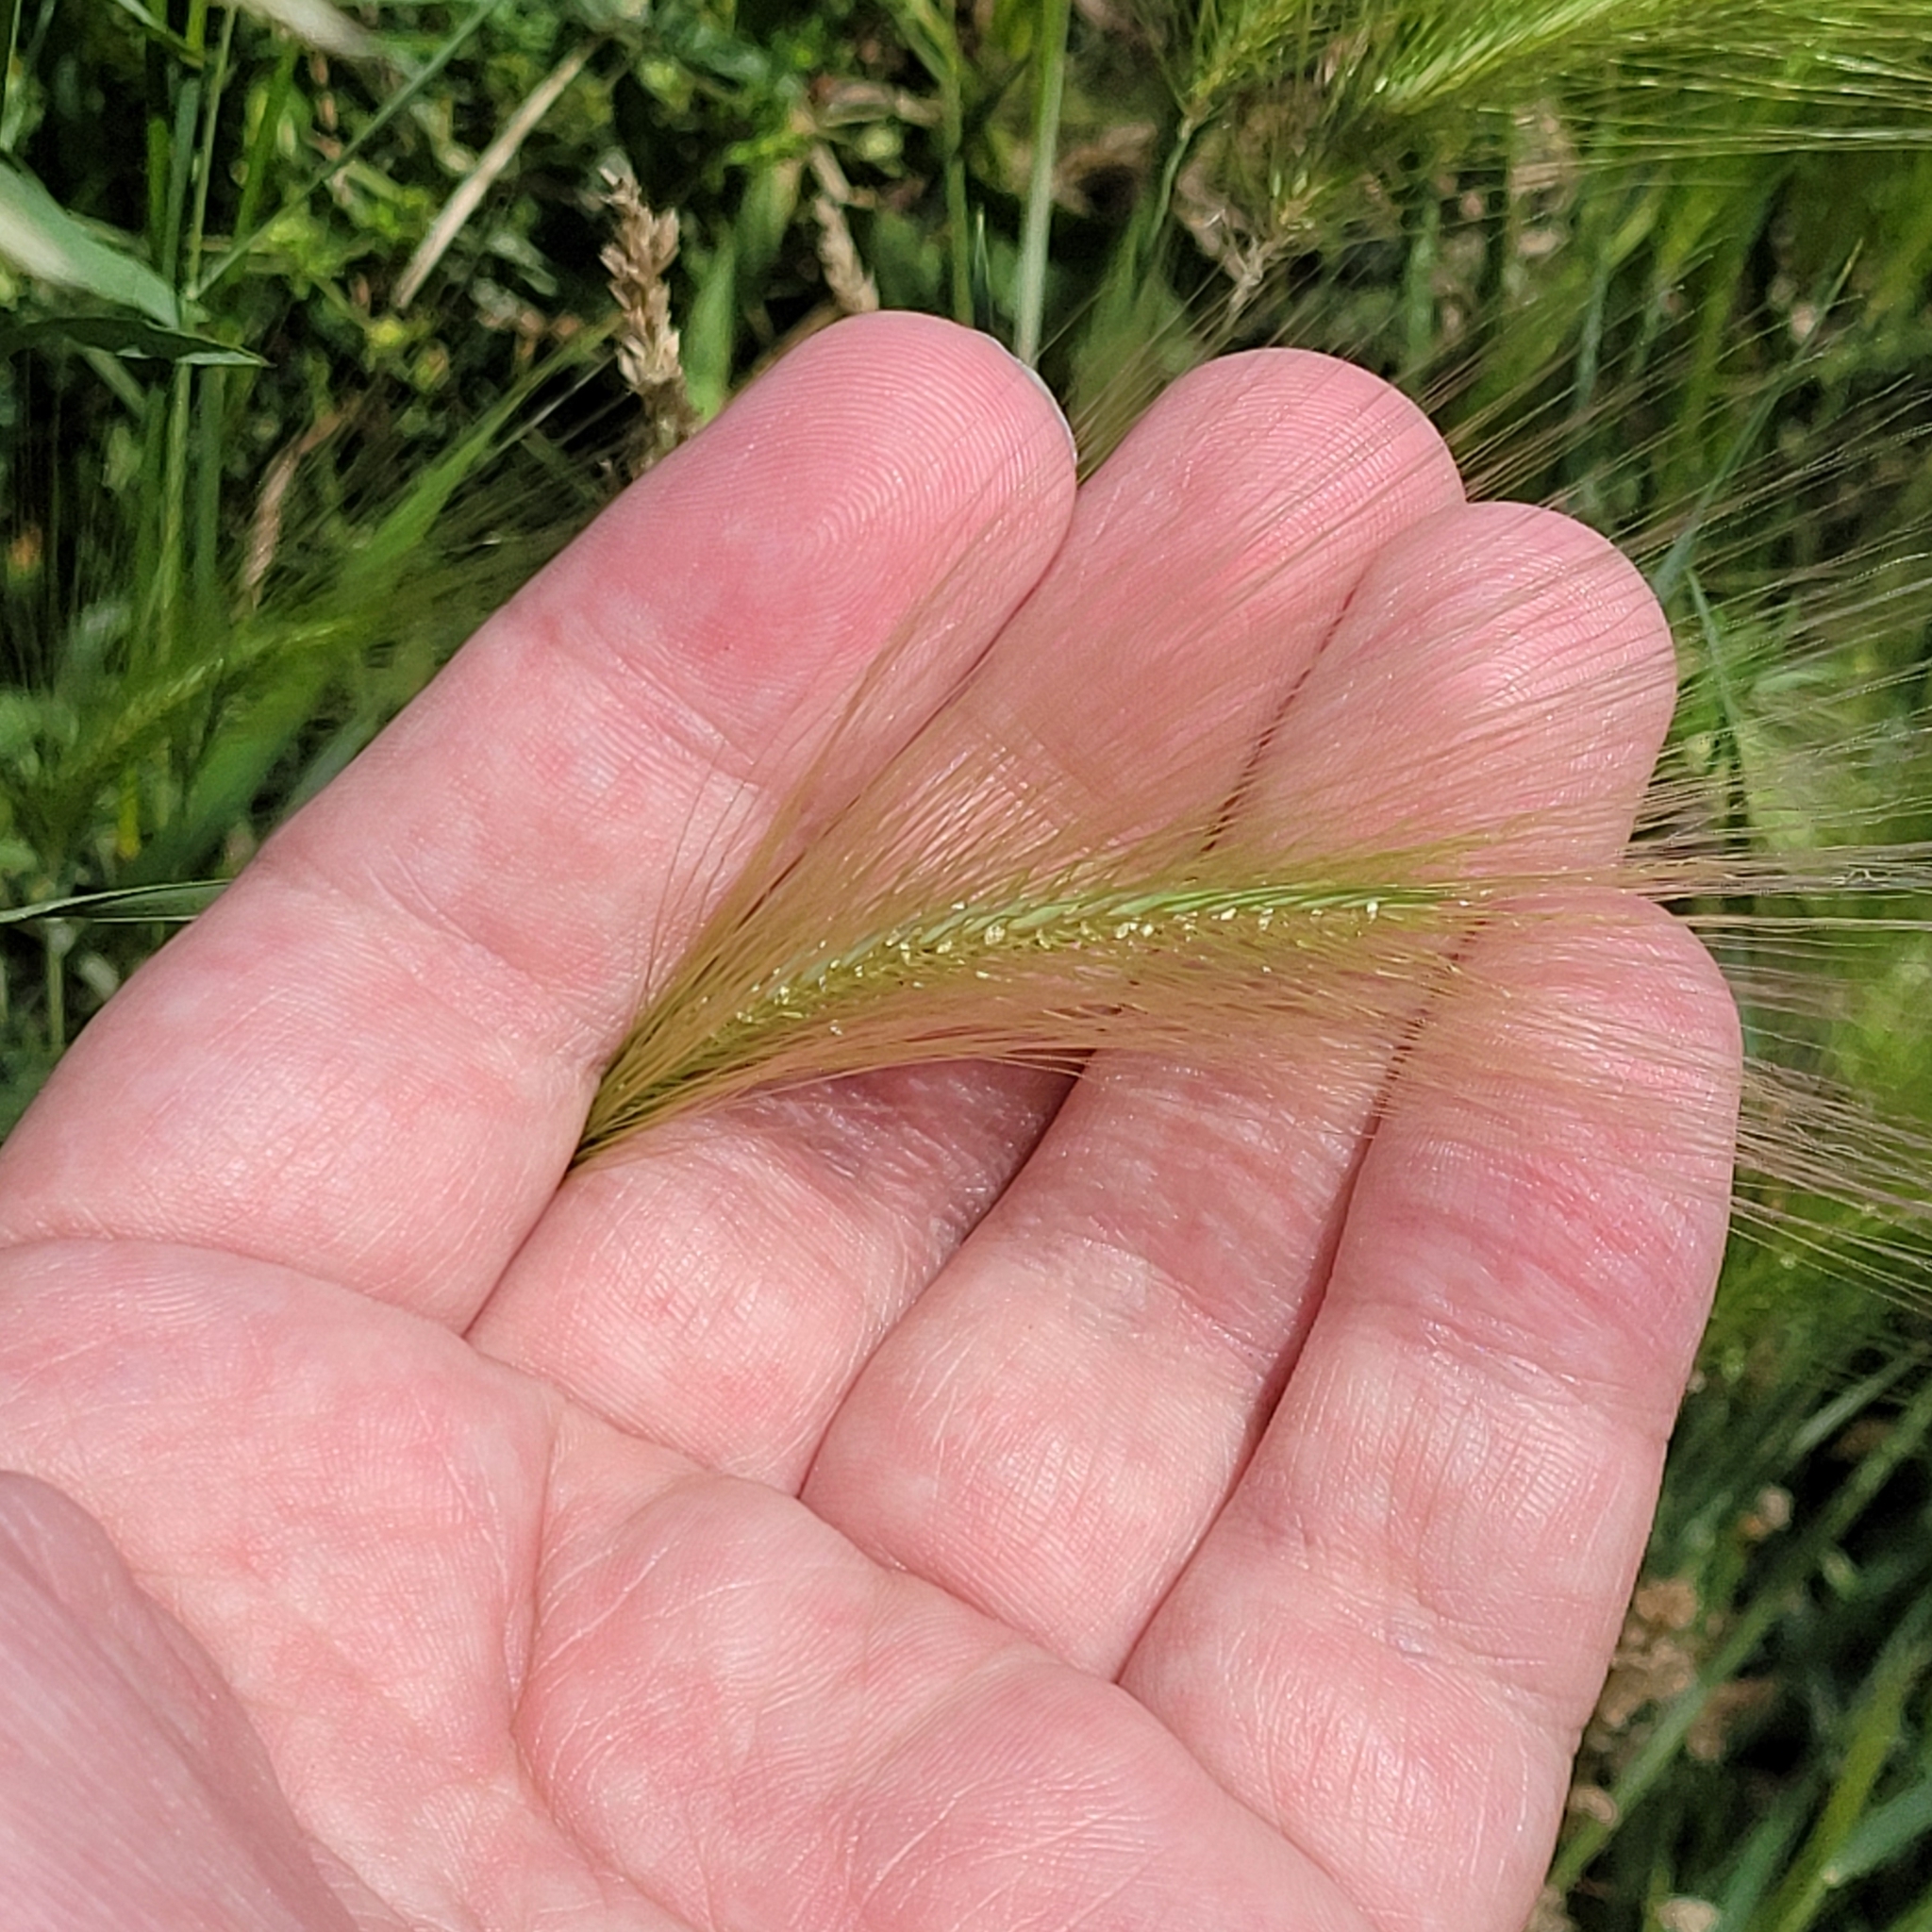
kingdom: Plantae
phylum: Tracheophyta
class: Liliopsida
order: Poales
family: Poaceae
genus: Hordeum
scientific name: Hordeum jubatum
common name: Foxtail barley
